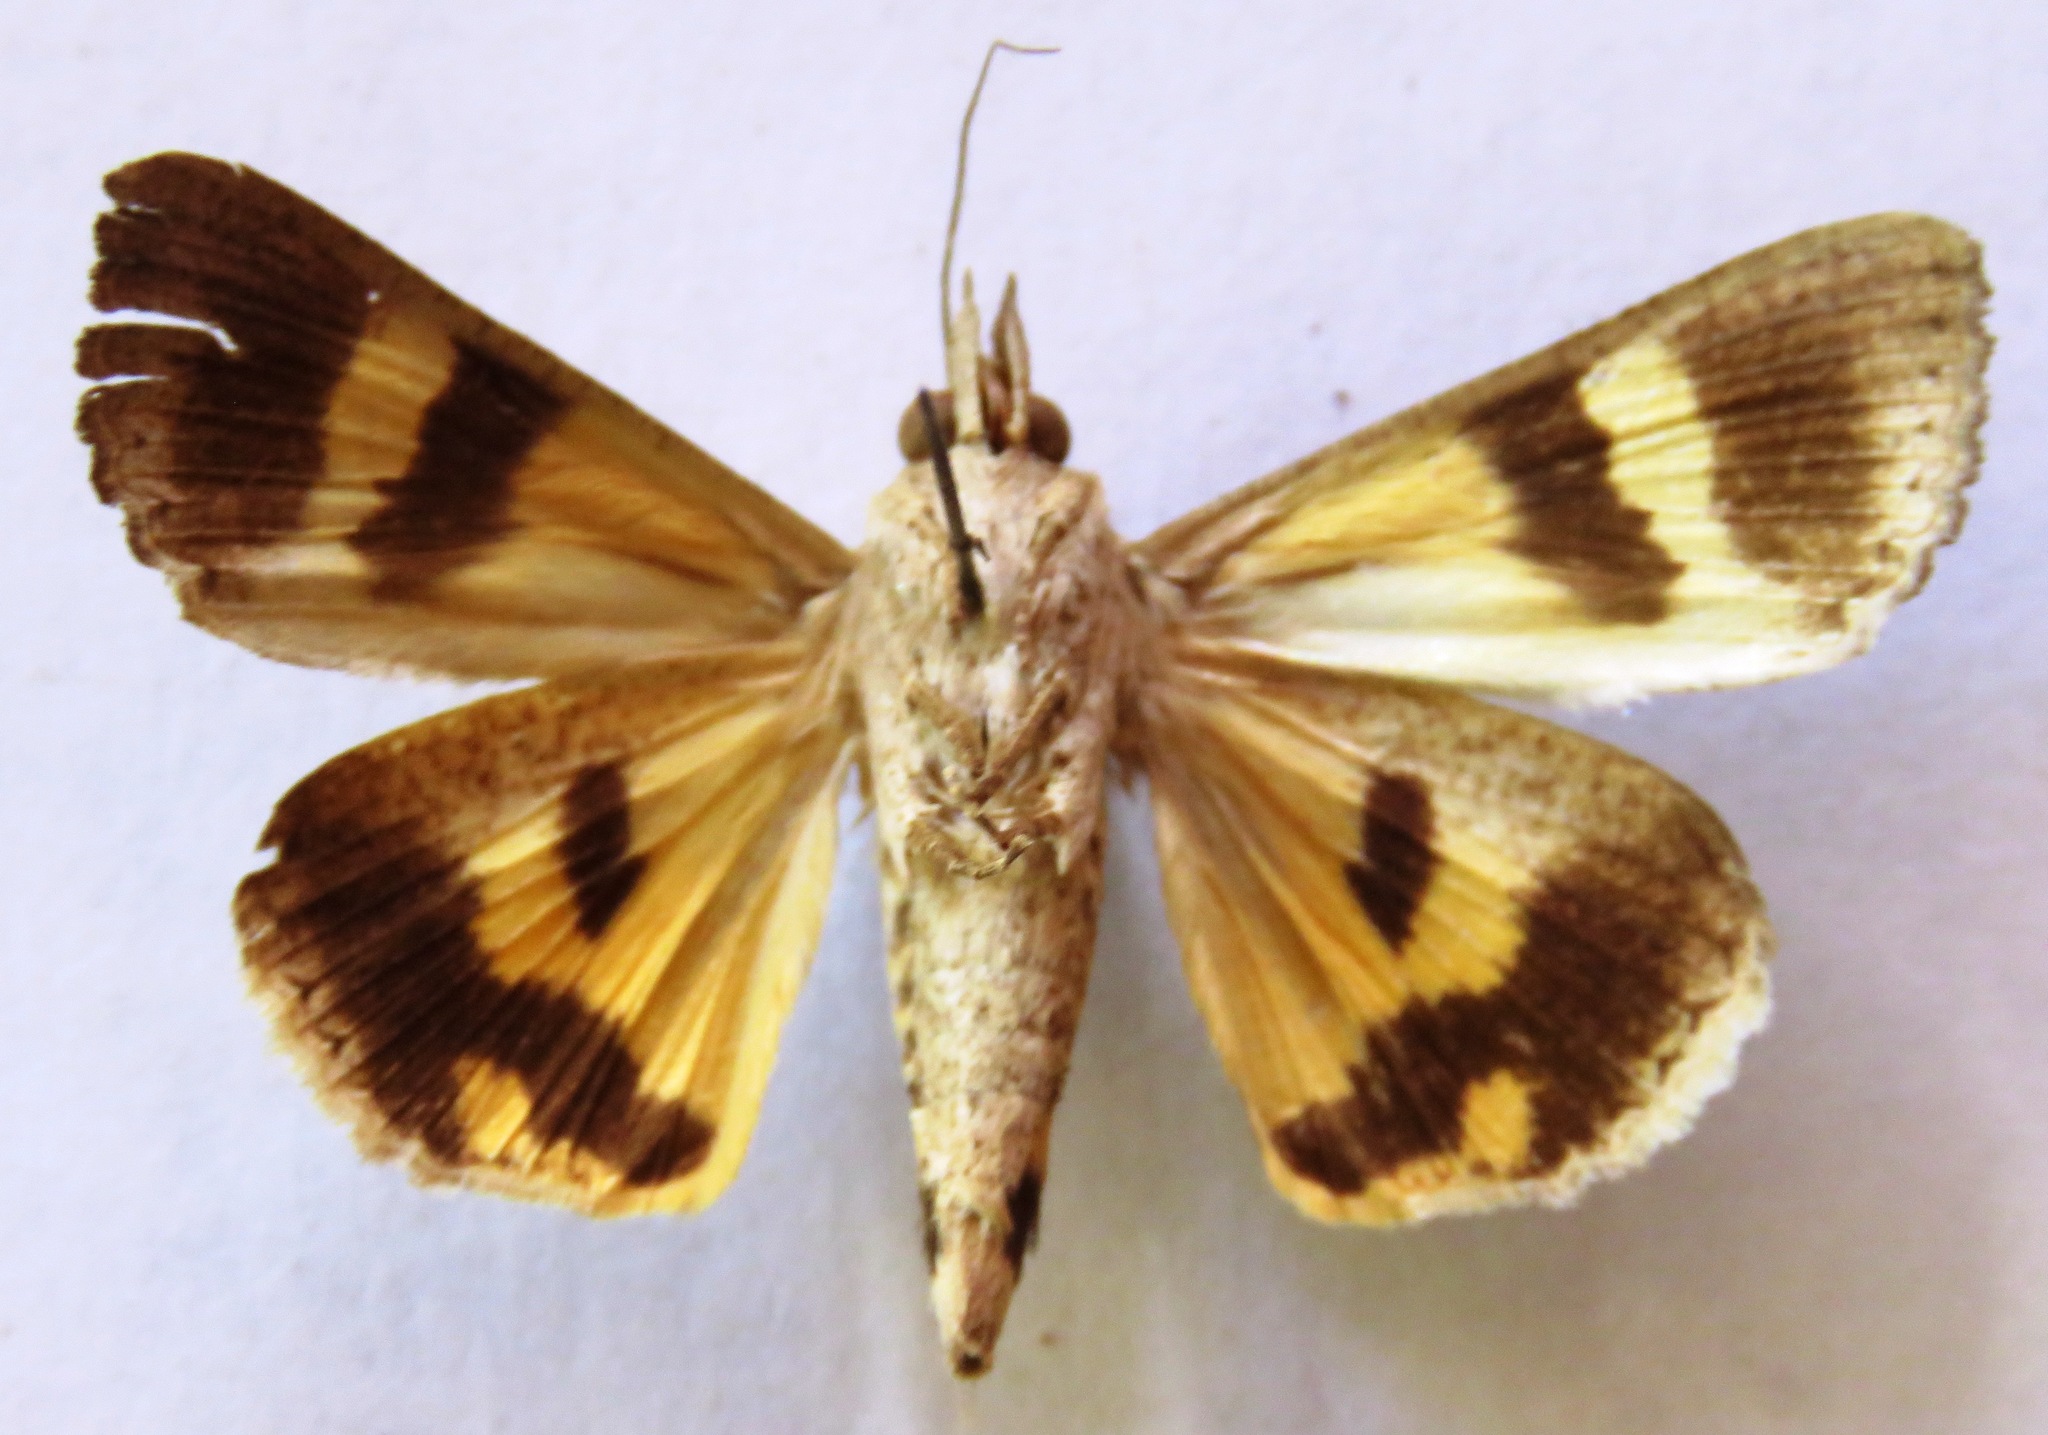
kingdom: Animalia
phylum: Arthropoda
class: Insecta
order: Lepidoptera
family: Erebidae
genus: Hypocala
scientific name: Hypocala andremona
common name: Hypocala moth
